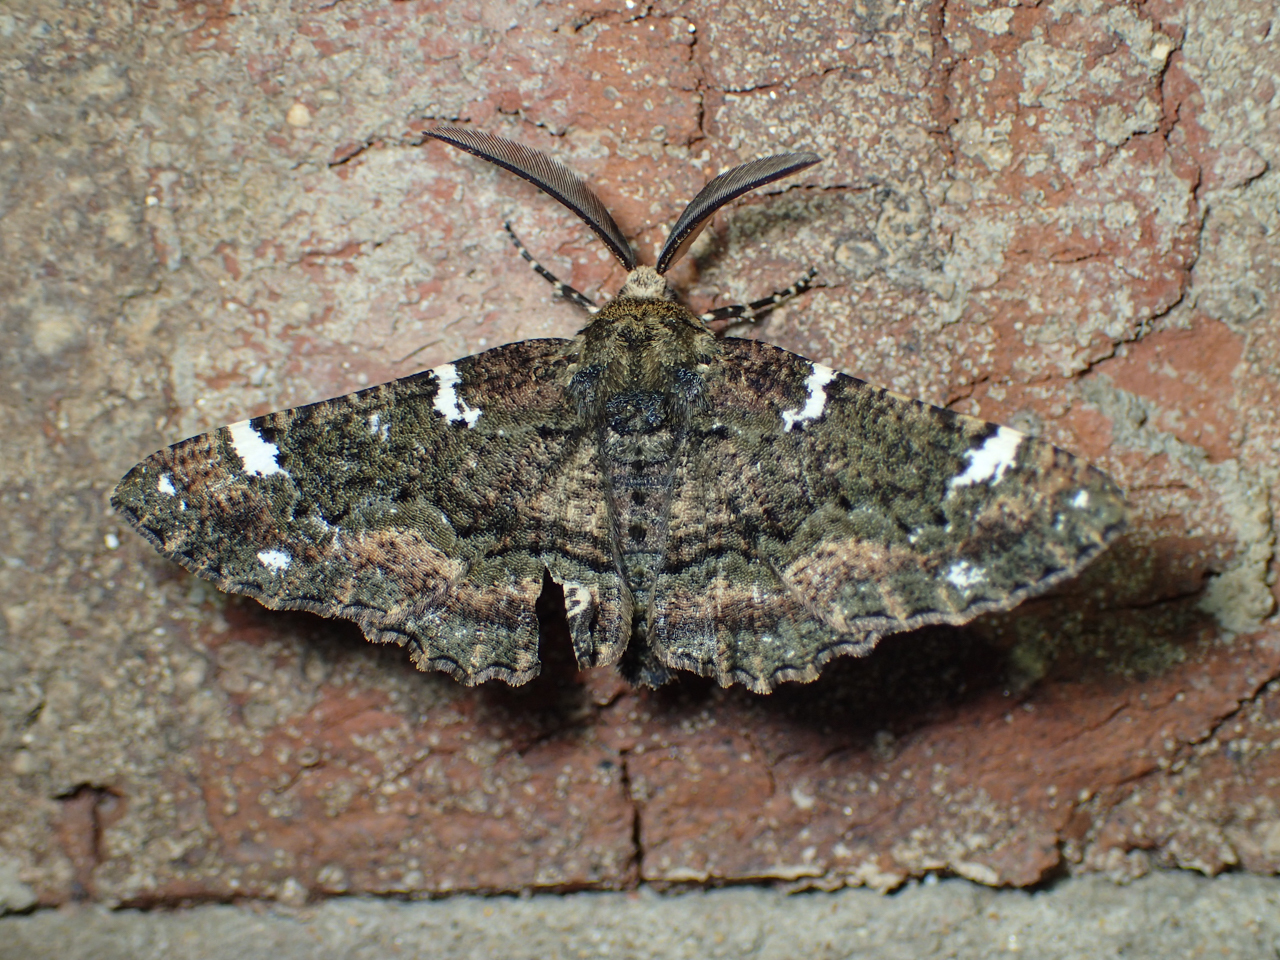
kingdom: Animalia
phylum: Arthropoda
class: Insecta
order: Lepidoptera
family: Geometridae
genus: Phaeoura
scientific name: Phaeoura quernaria
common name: Oak beauty
